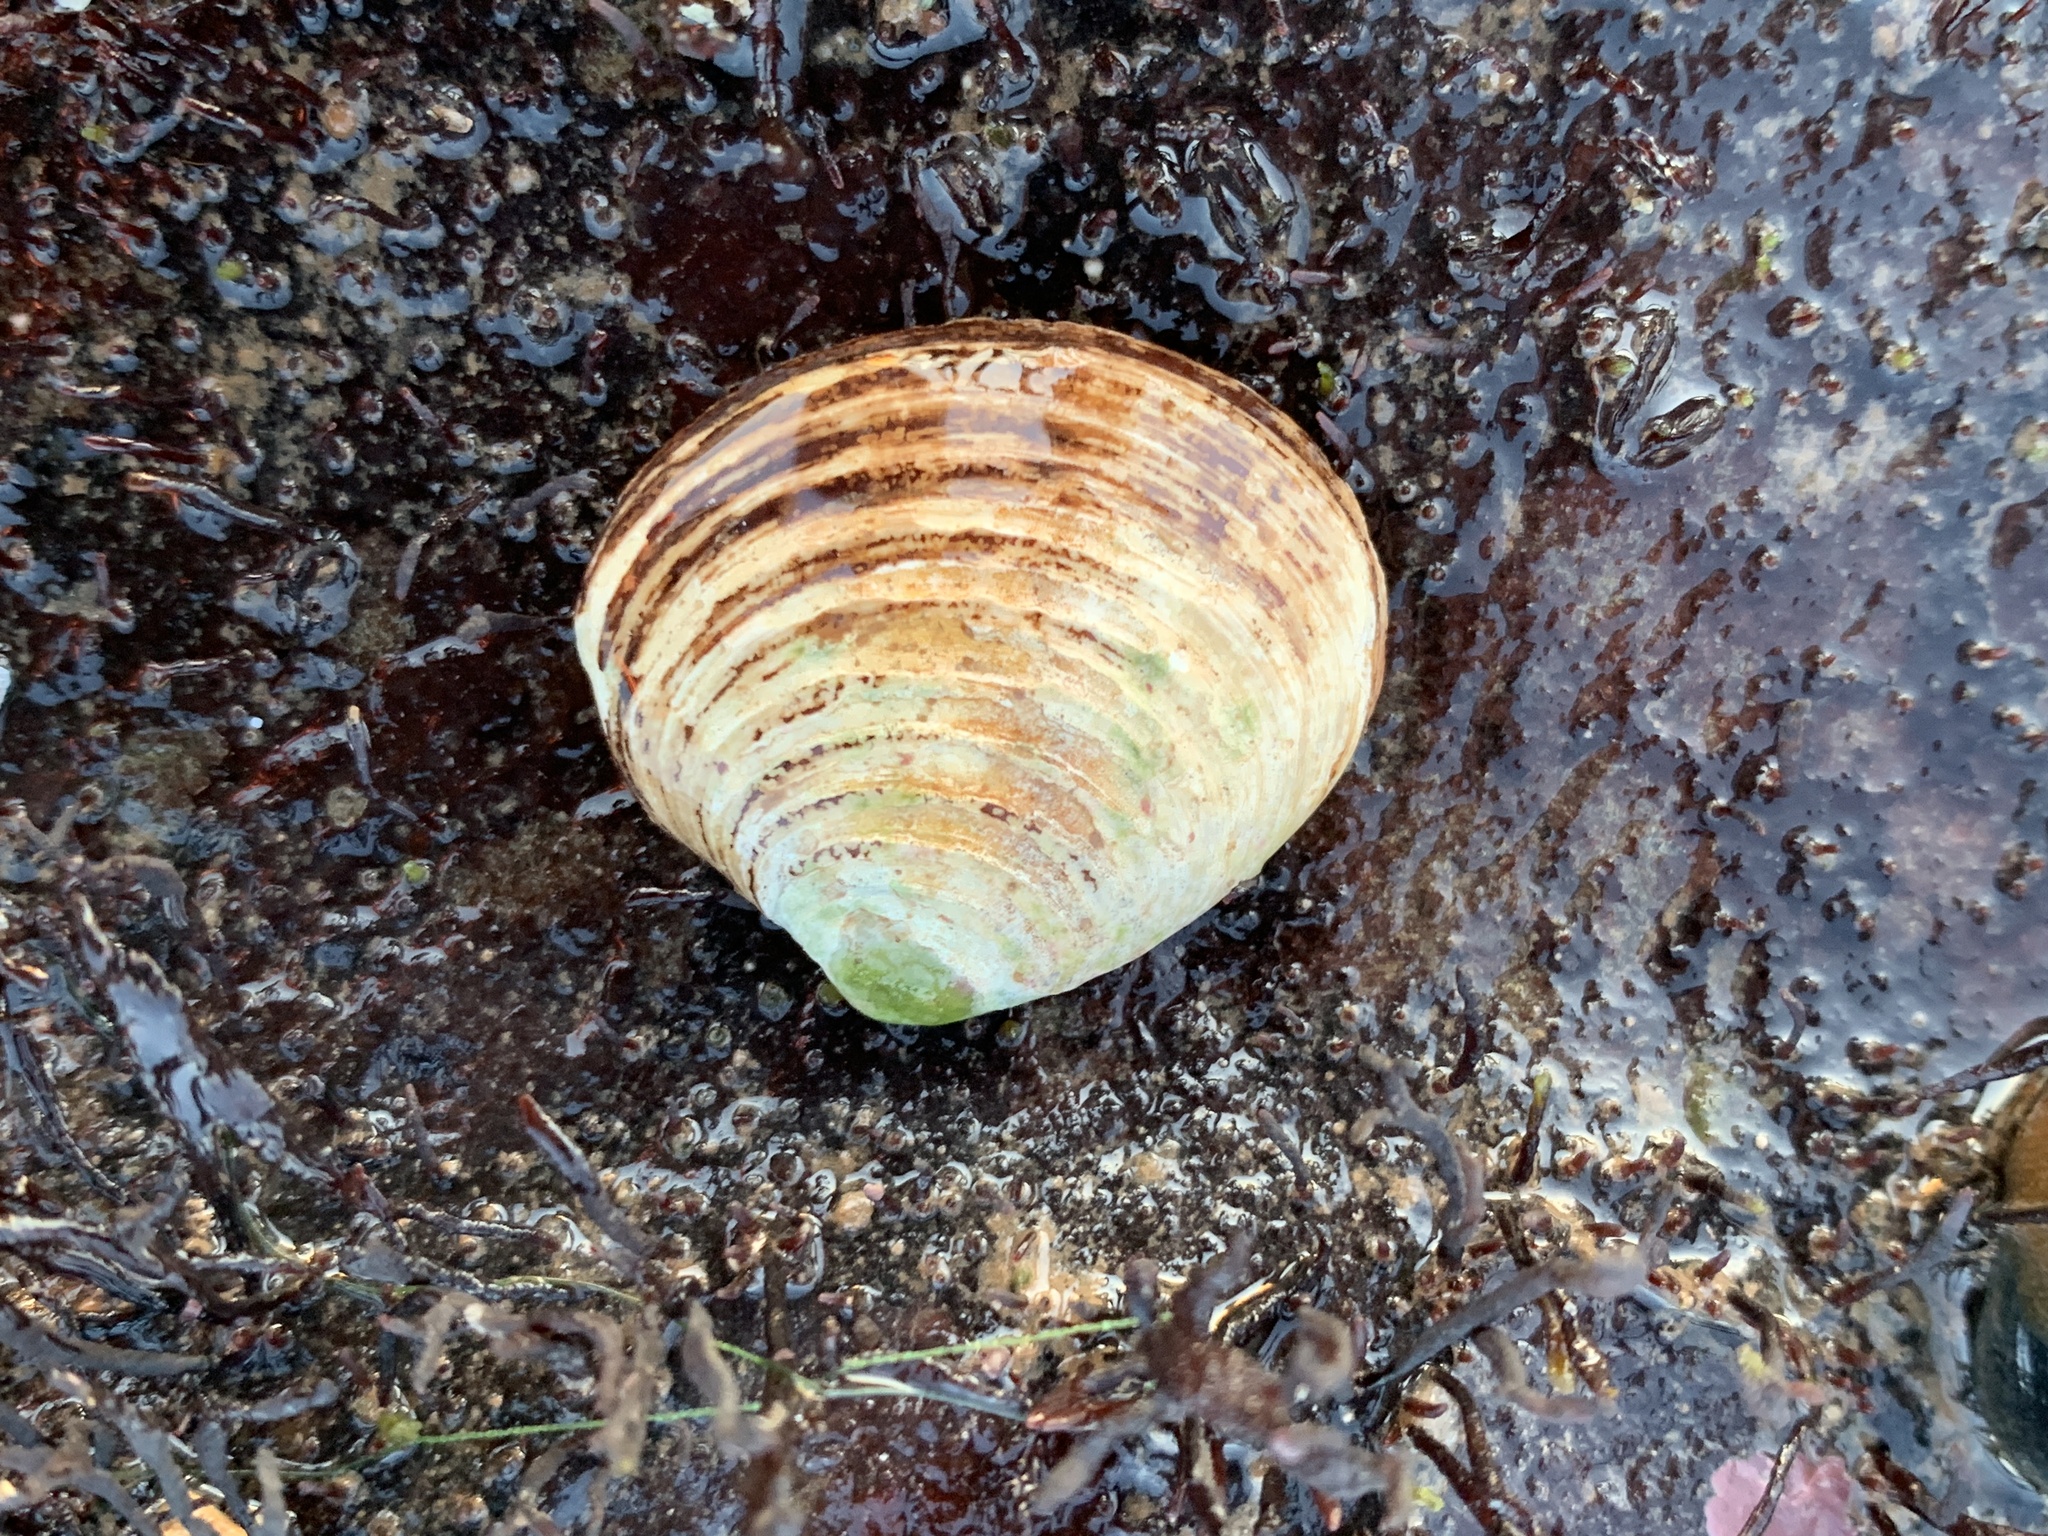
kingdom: Animalia
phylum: Mollusca
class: Bivalvia
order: Carditida
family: Astartidae
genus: Astarte
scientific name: Astarte undata
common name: Wavy astarte
